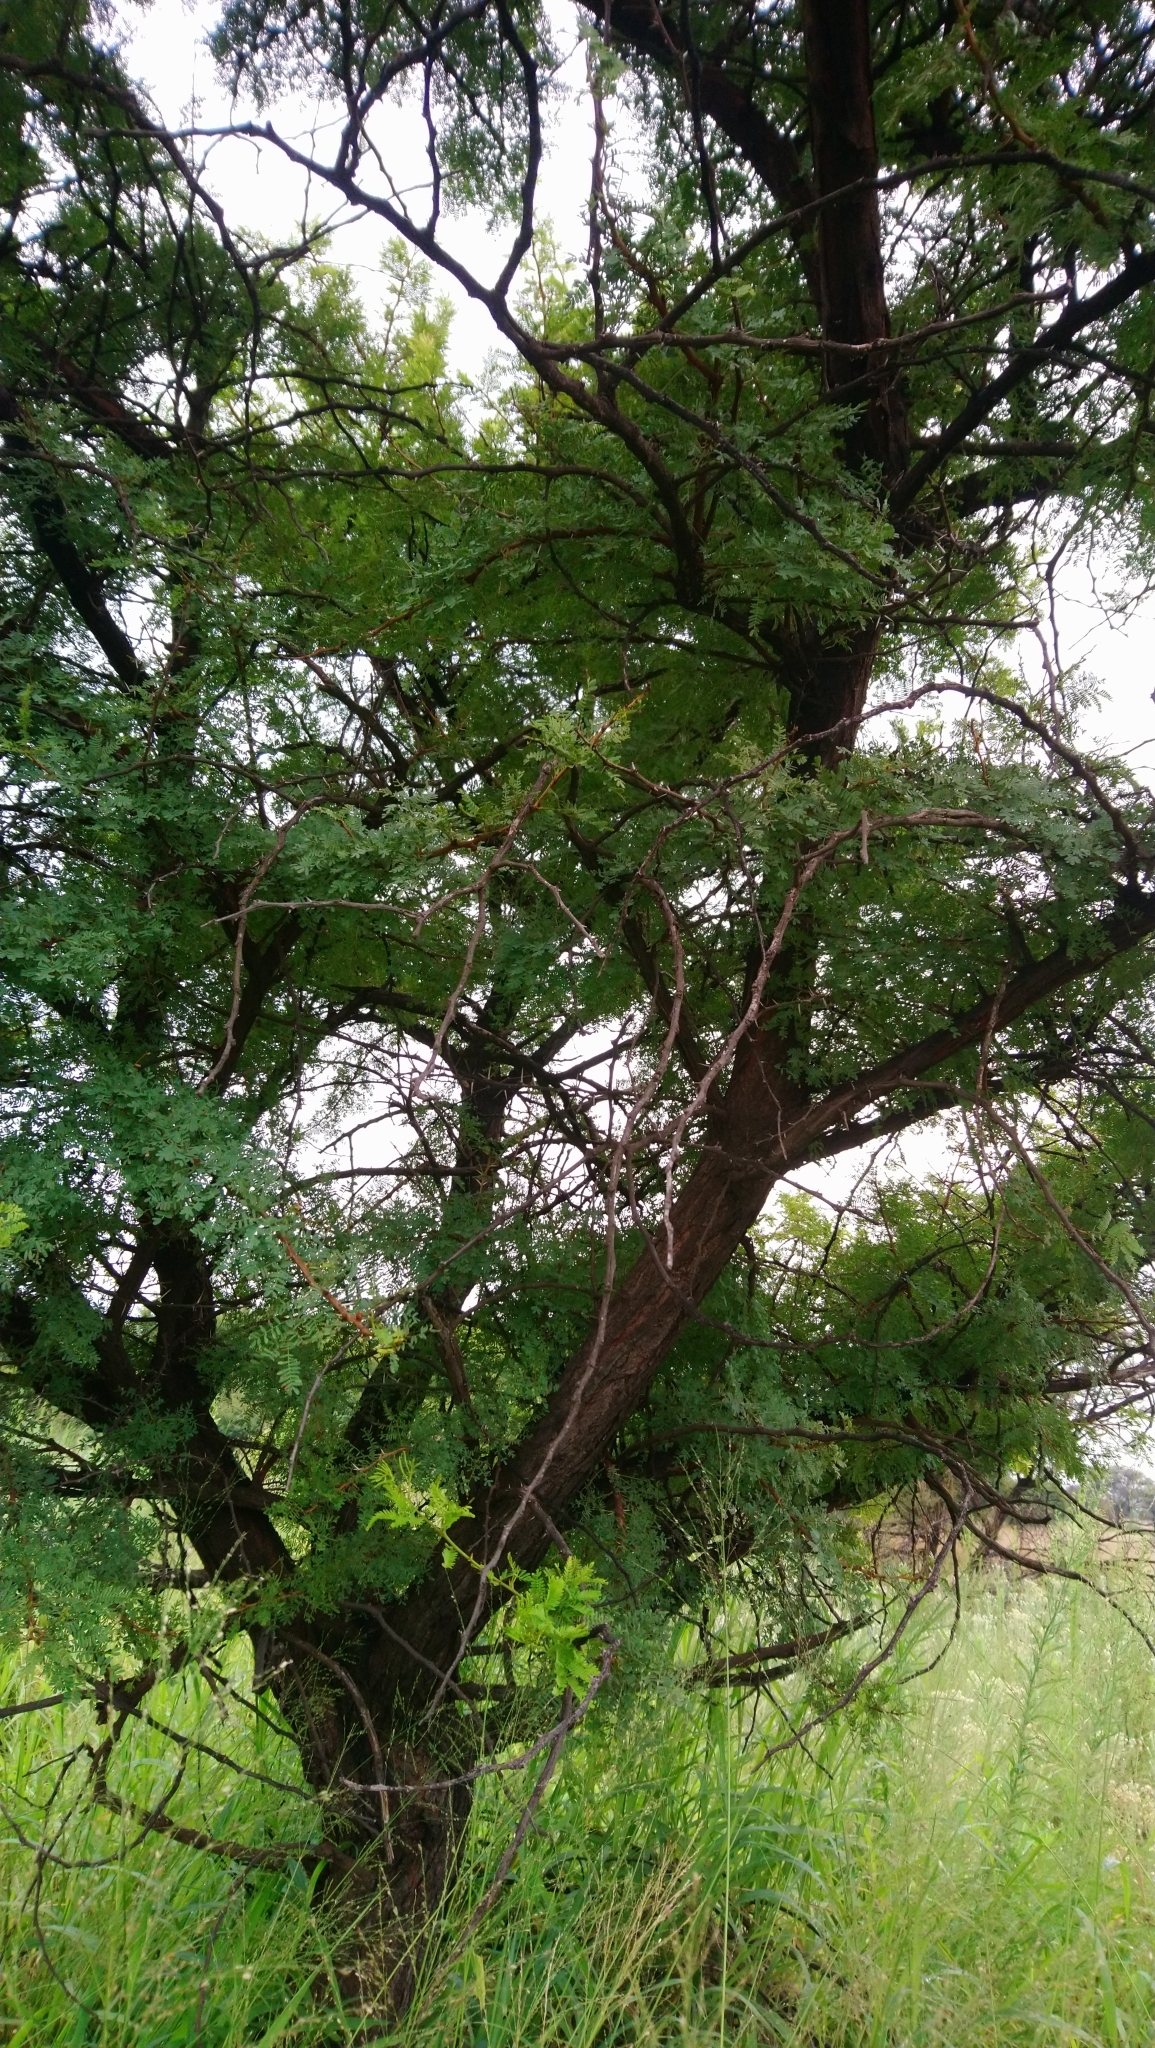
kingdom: Plantae
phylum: Tracheophyta
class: Magnoliopsida
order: Fabales
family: Fabaceae
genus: Vachellia
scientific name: Vachellia karroo
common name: Sweet thorn
